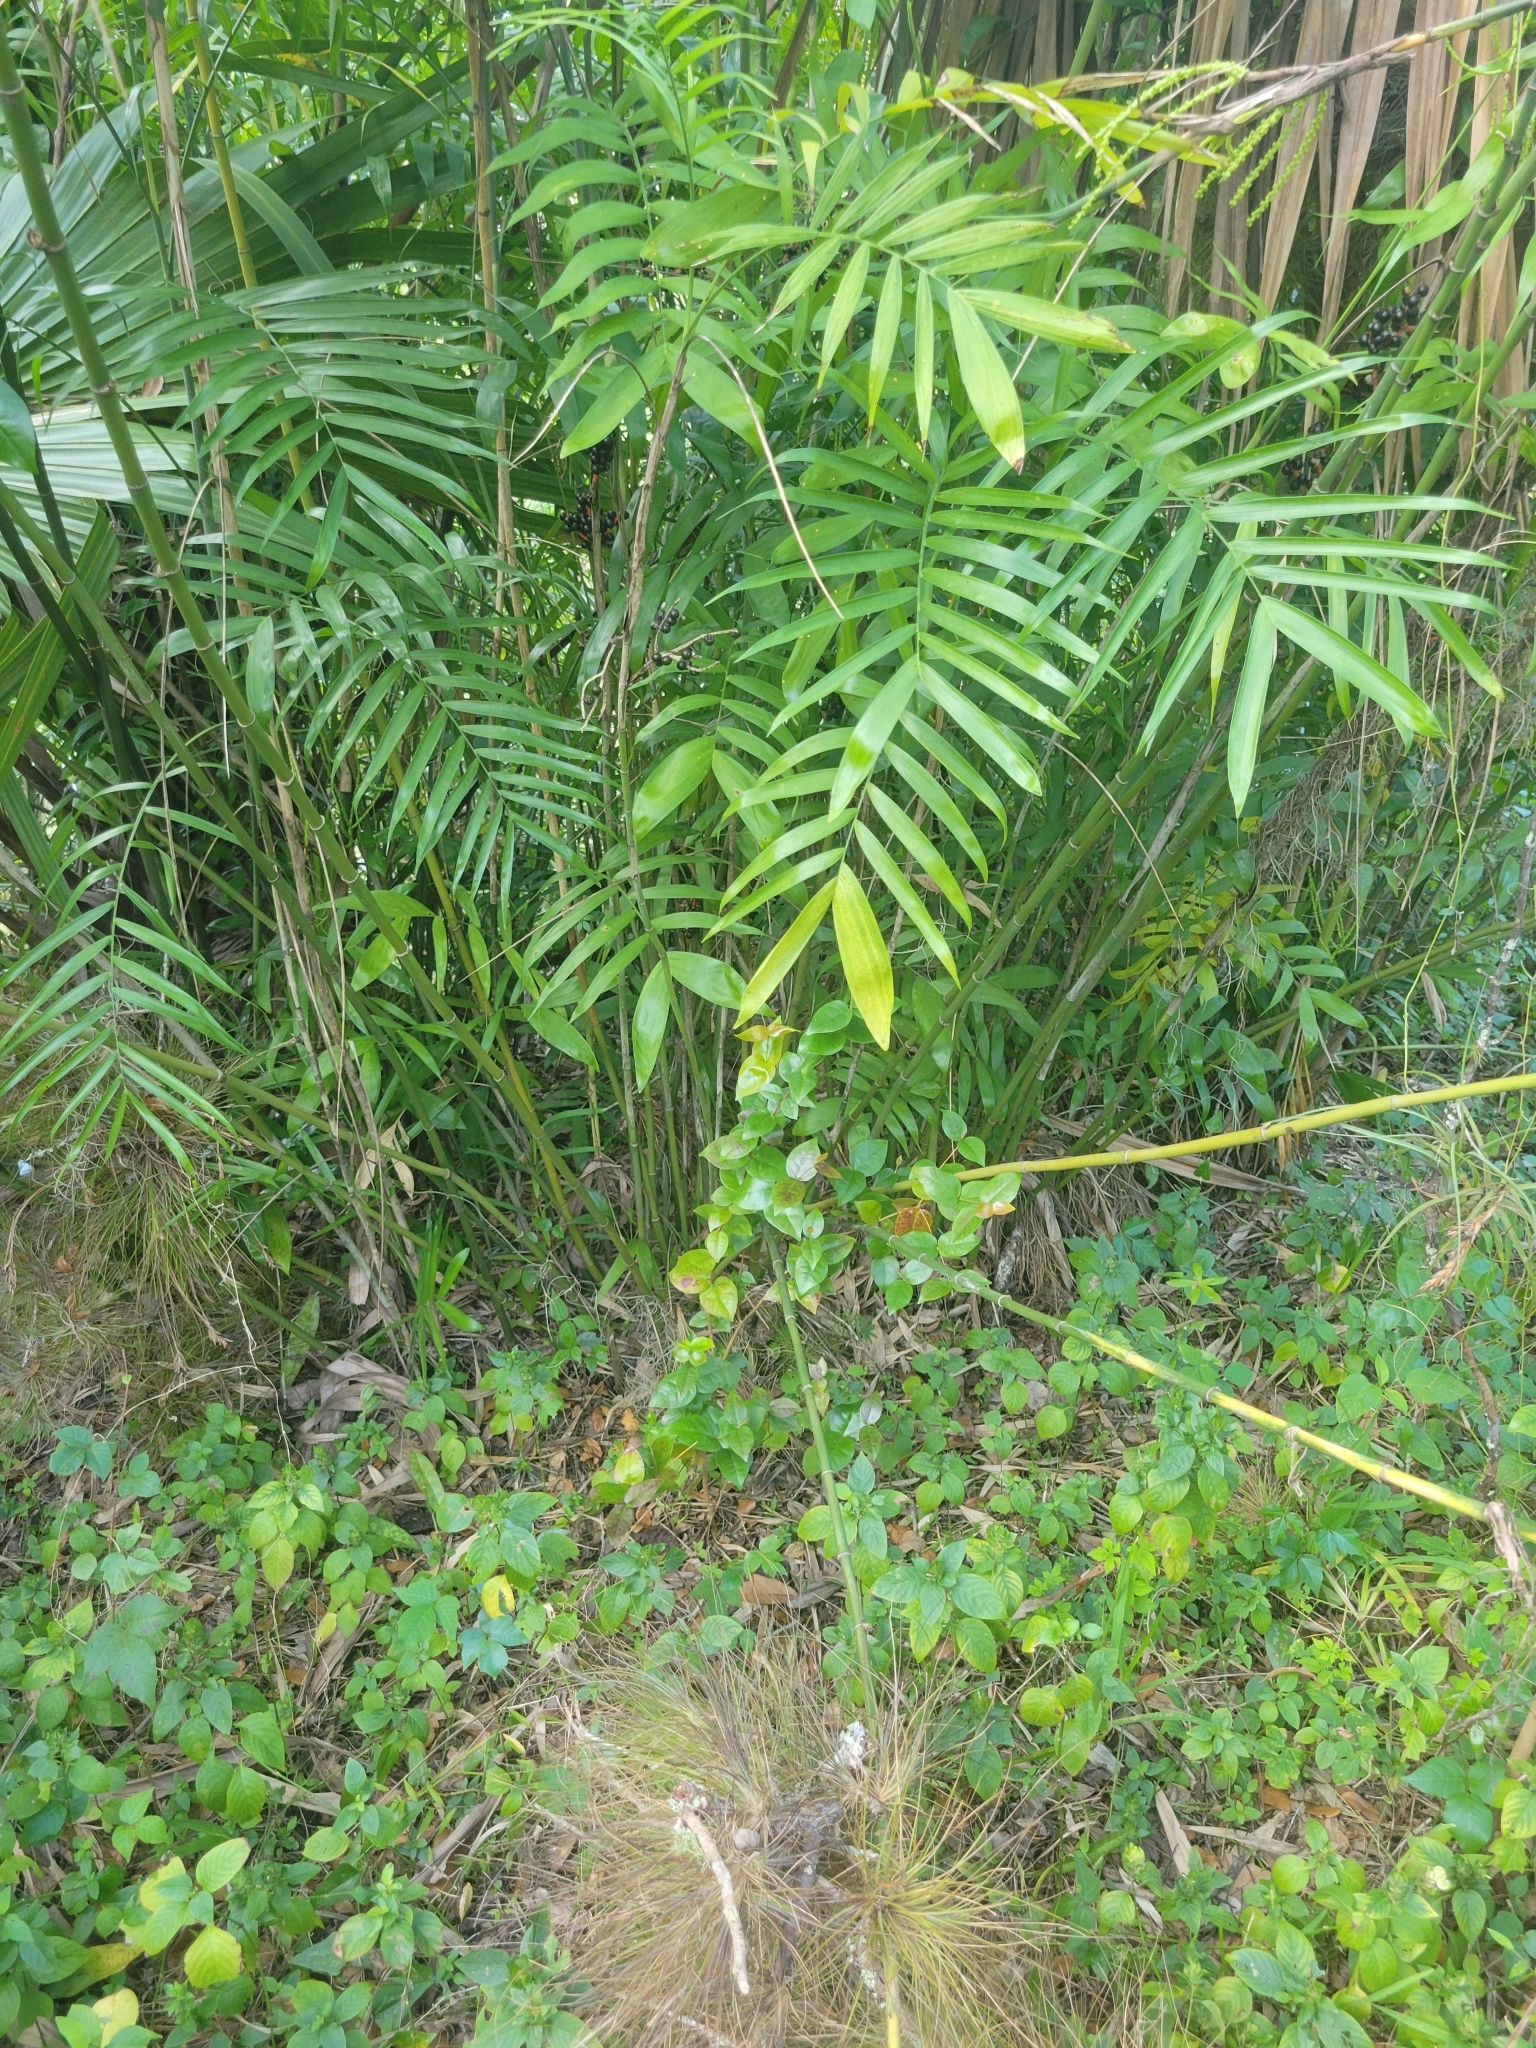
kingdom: Plantae
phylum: Tracheophyta
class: Liliopsida
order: Arecales
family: Arecaceae
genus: Chamaedorea
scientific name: Chamaedorea seifrizii
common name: Seifriz's chamaedorea
